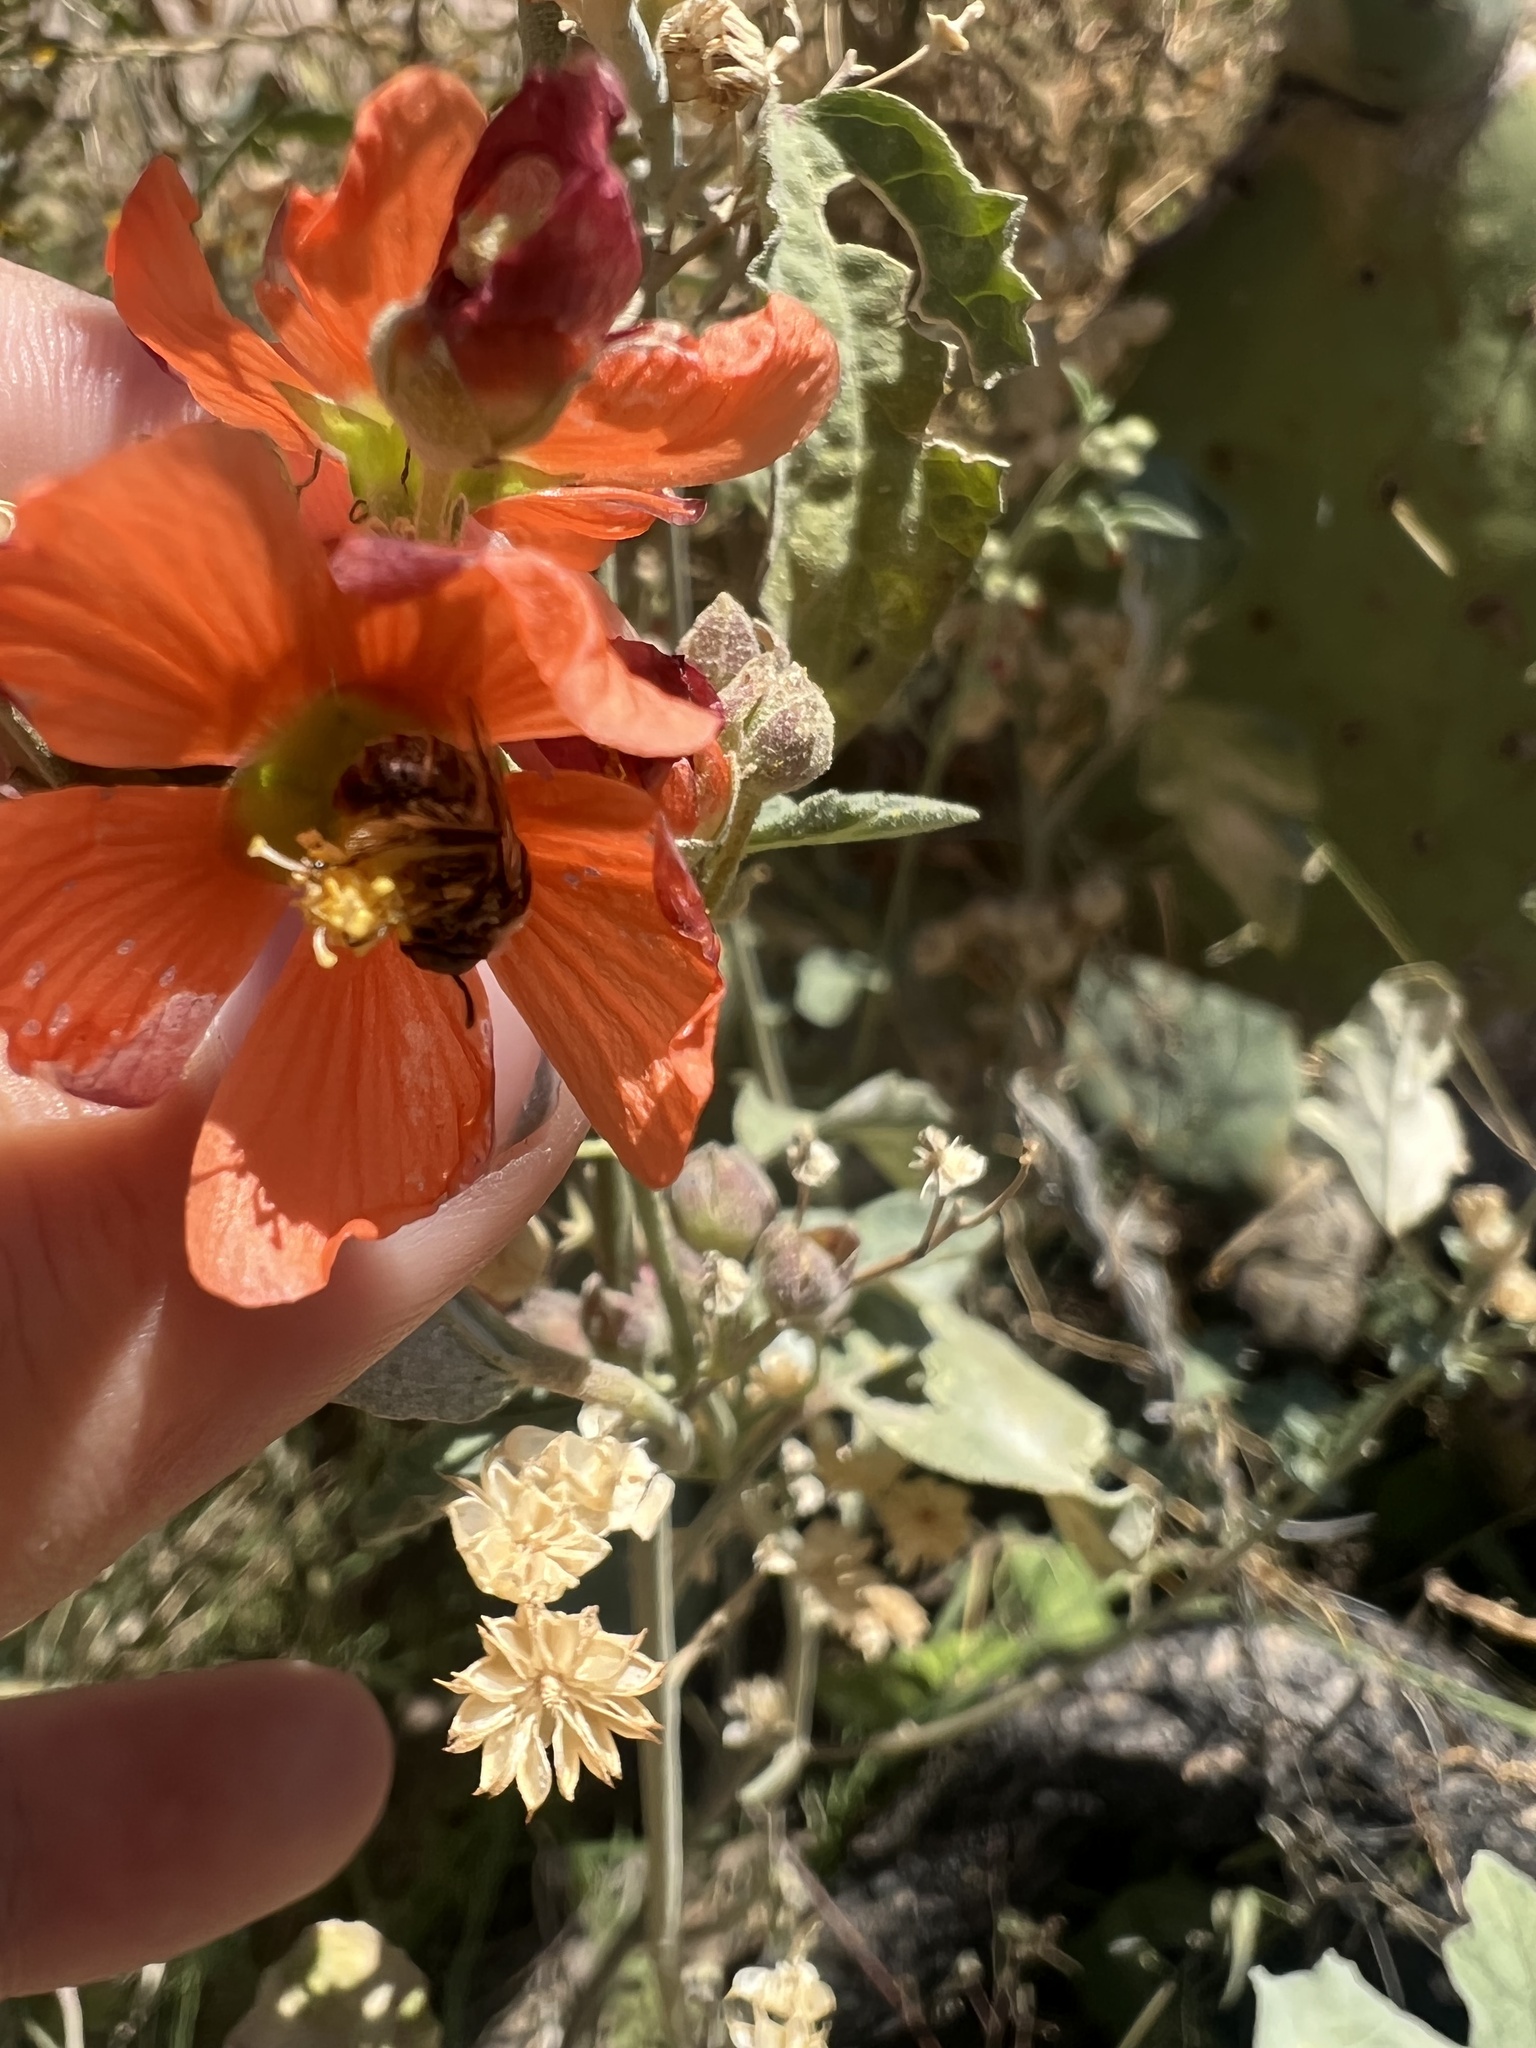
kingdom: Animalia
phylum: Arthropoda
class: Insecta
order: Hymenoptera
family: Apidae
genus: Diadasia
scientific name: Diadasia
